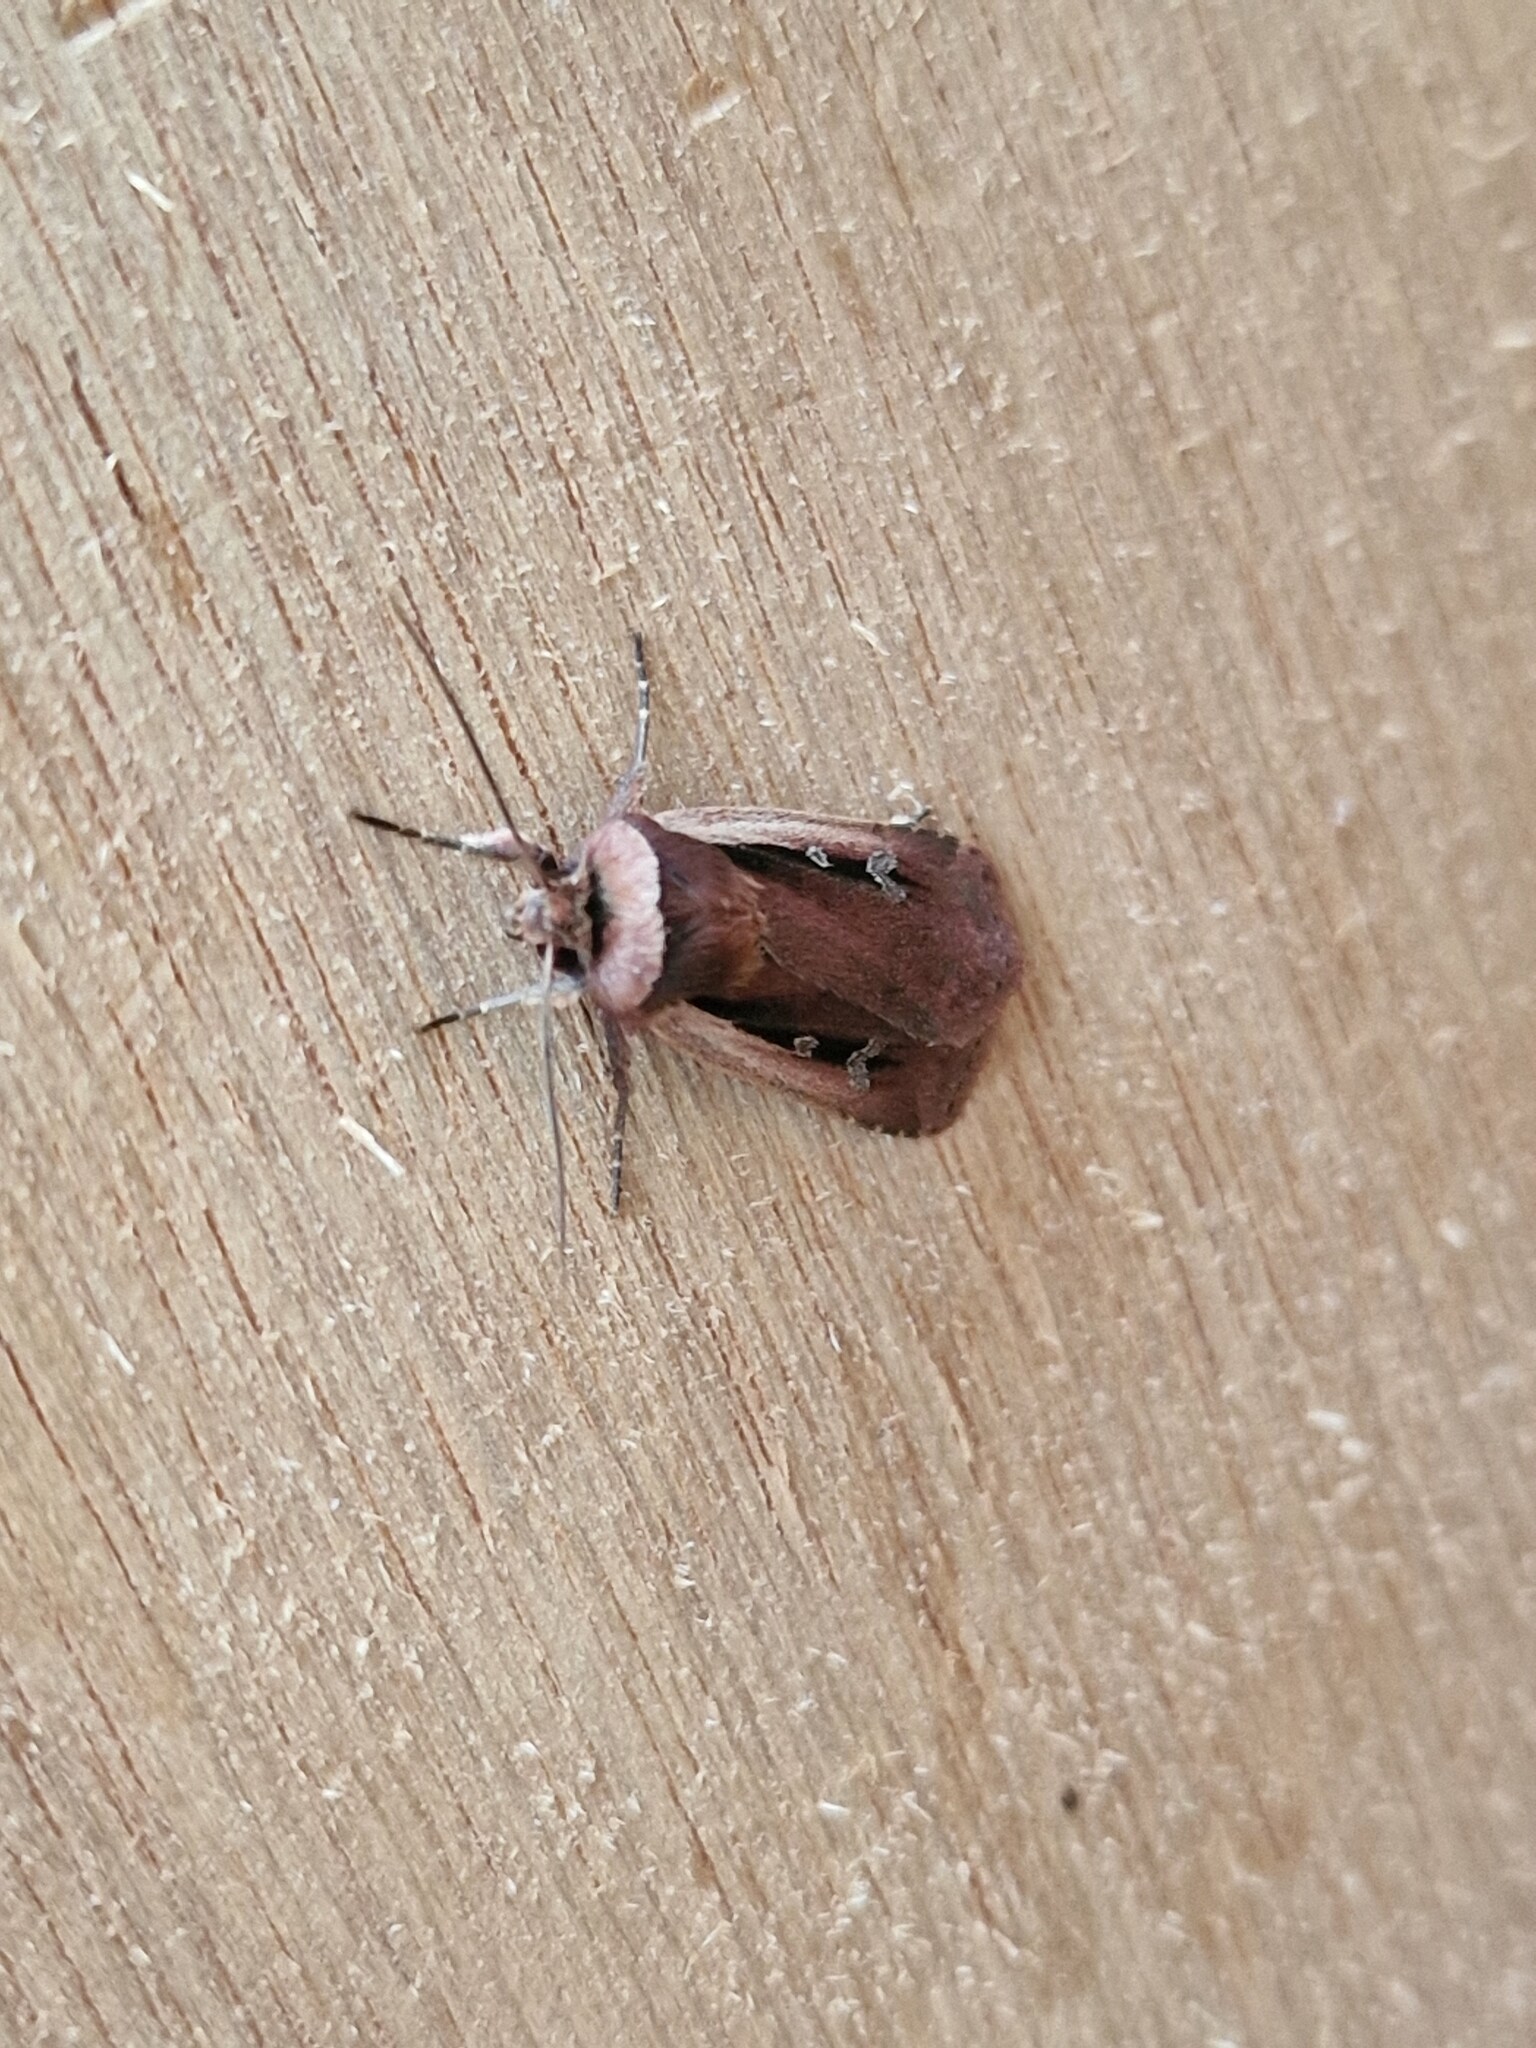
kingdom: Animalia
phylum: Arthropoda
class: Insecta
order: Lepidoptera
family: Noctuidae
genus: Ochropleura
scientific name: Ochropleura plecta
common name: Flame shoulder
